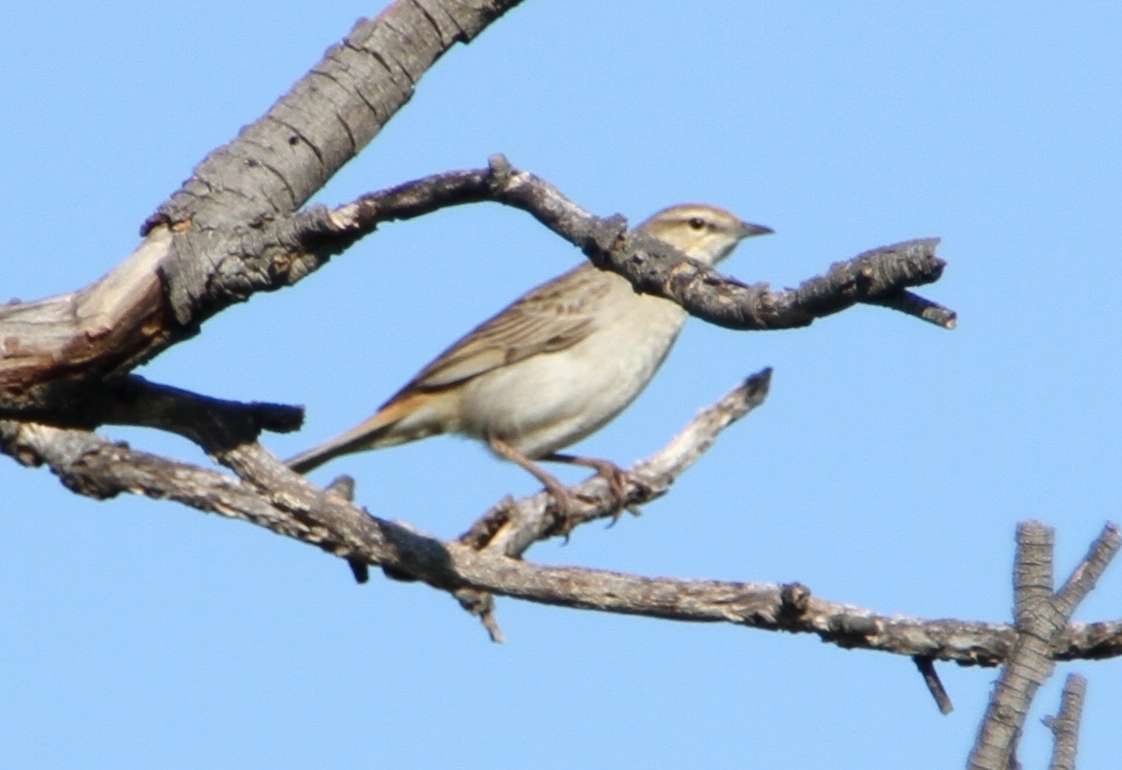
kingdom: Animalia
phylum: Chordata
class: Aves
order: Passeriformes
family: Locustellidae
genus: Megalurus
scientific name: Megalurus mathewsi
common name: Rufous songlark
